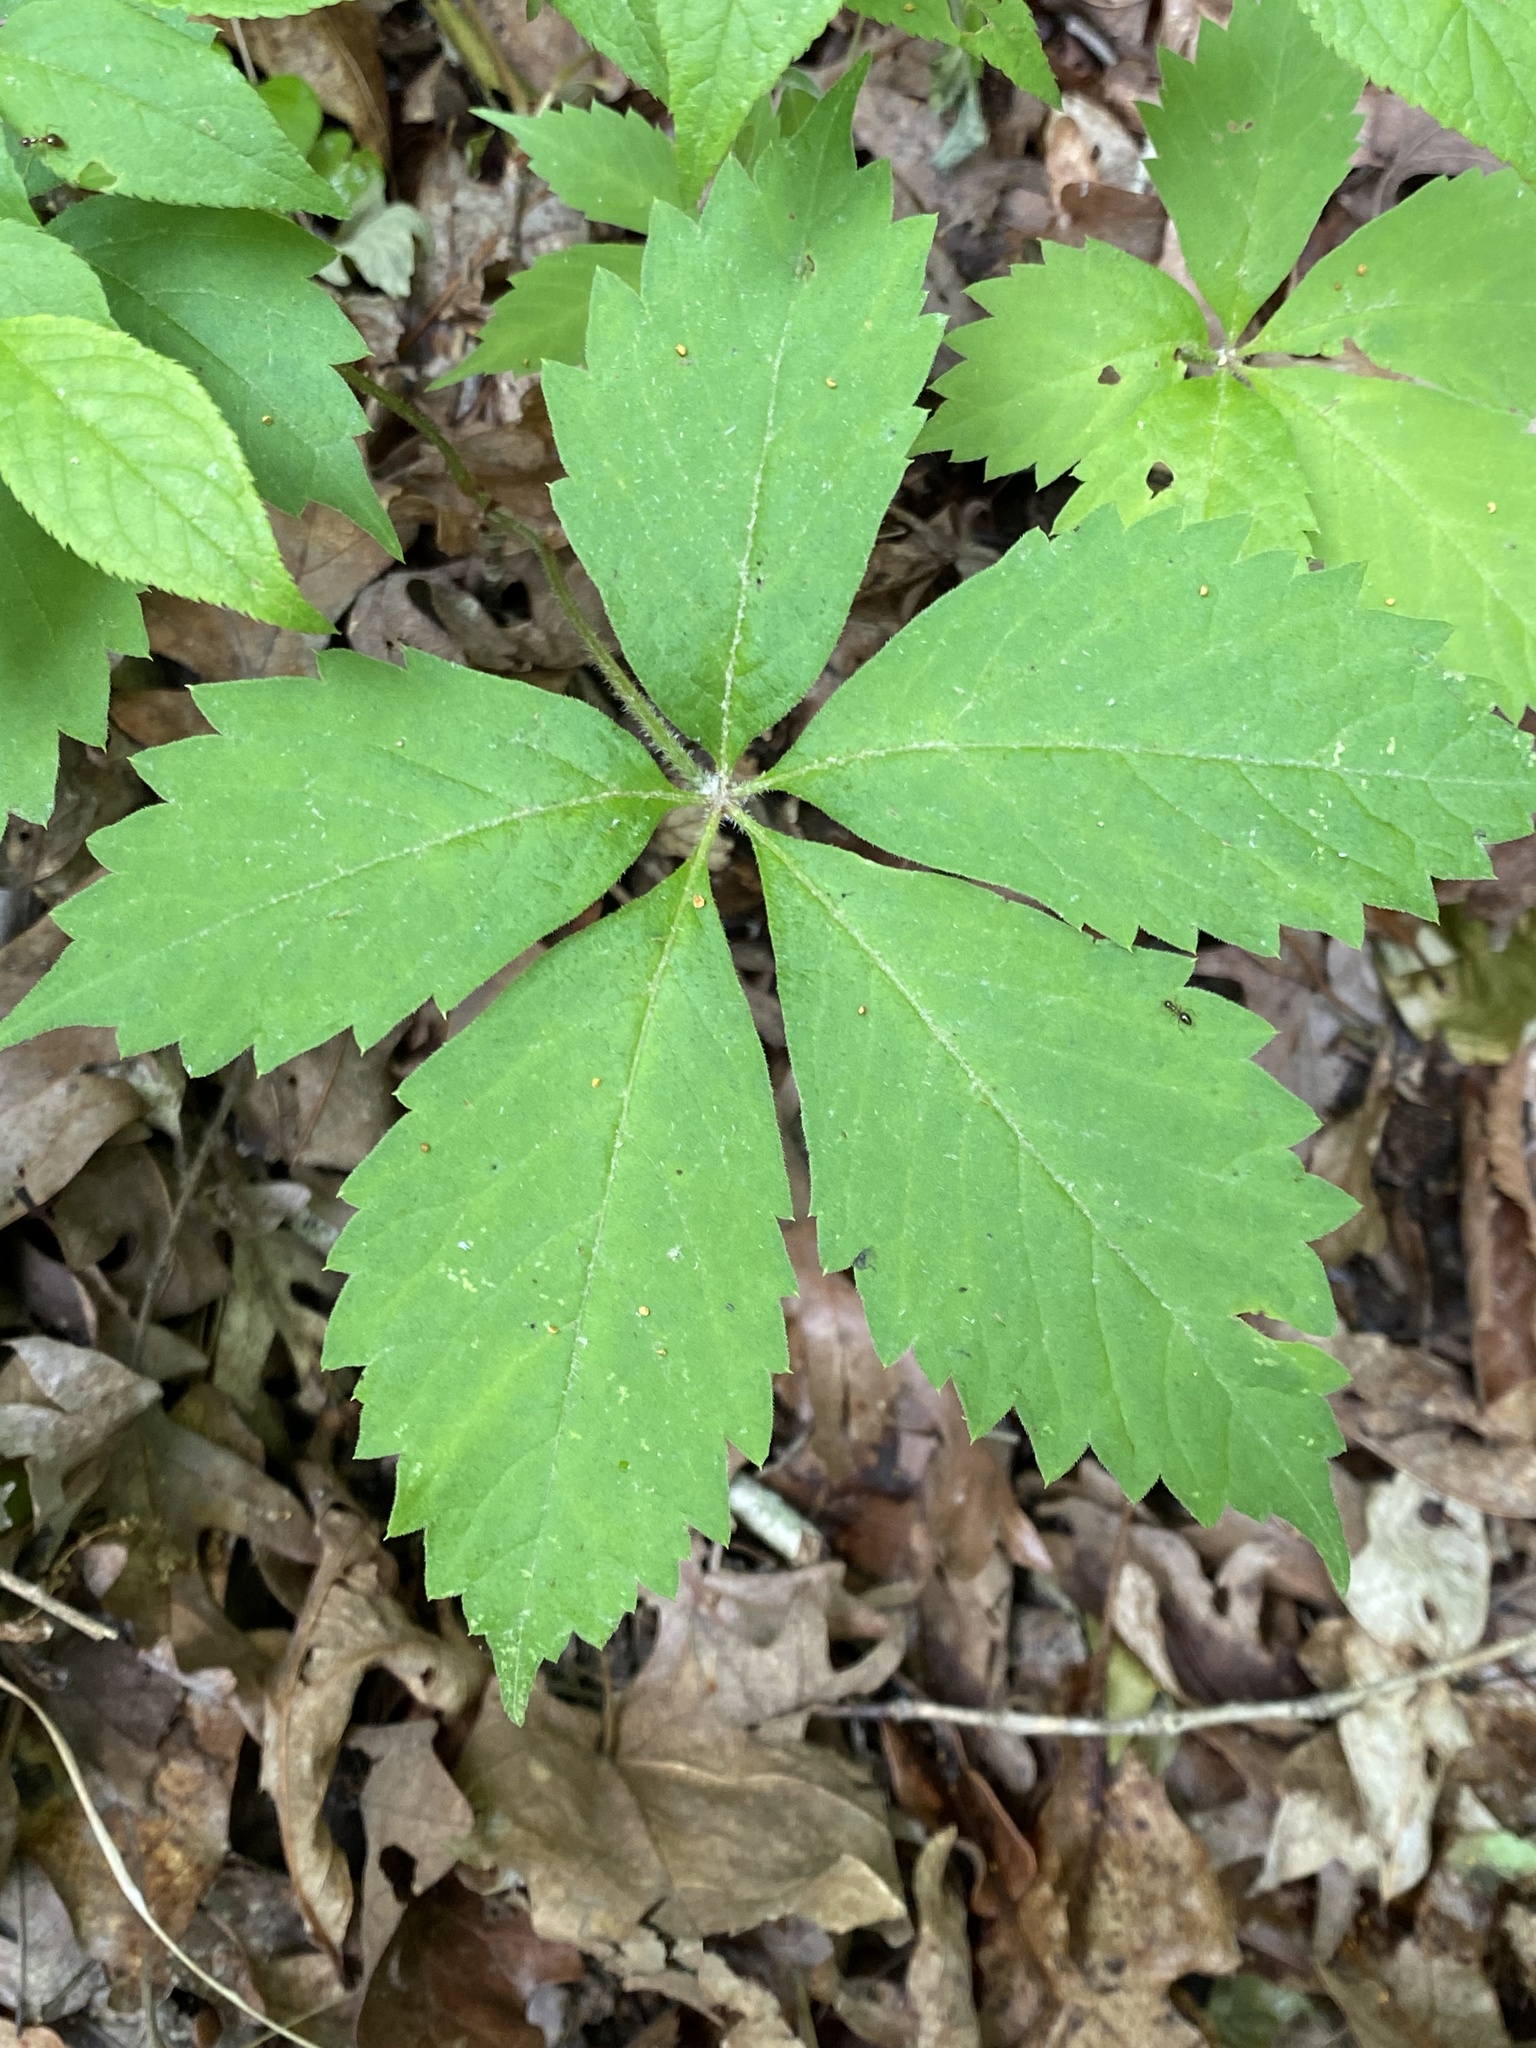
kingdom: Plantae
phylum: Tracheophyta
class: Magnoliopsida
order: Vitales
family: Vitaceae
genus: Parthenocissus
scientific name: Parthenocissus quinquefolia
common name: Virginia-creeper
